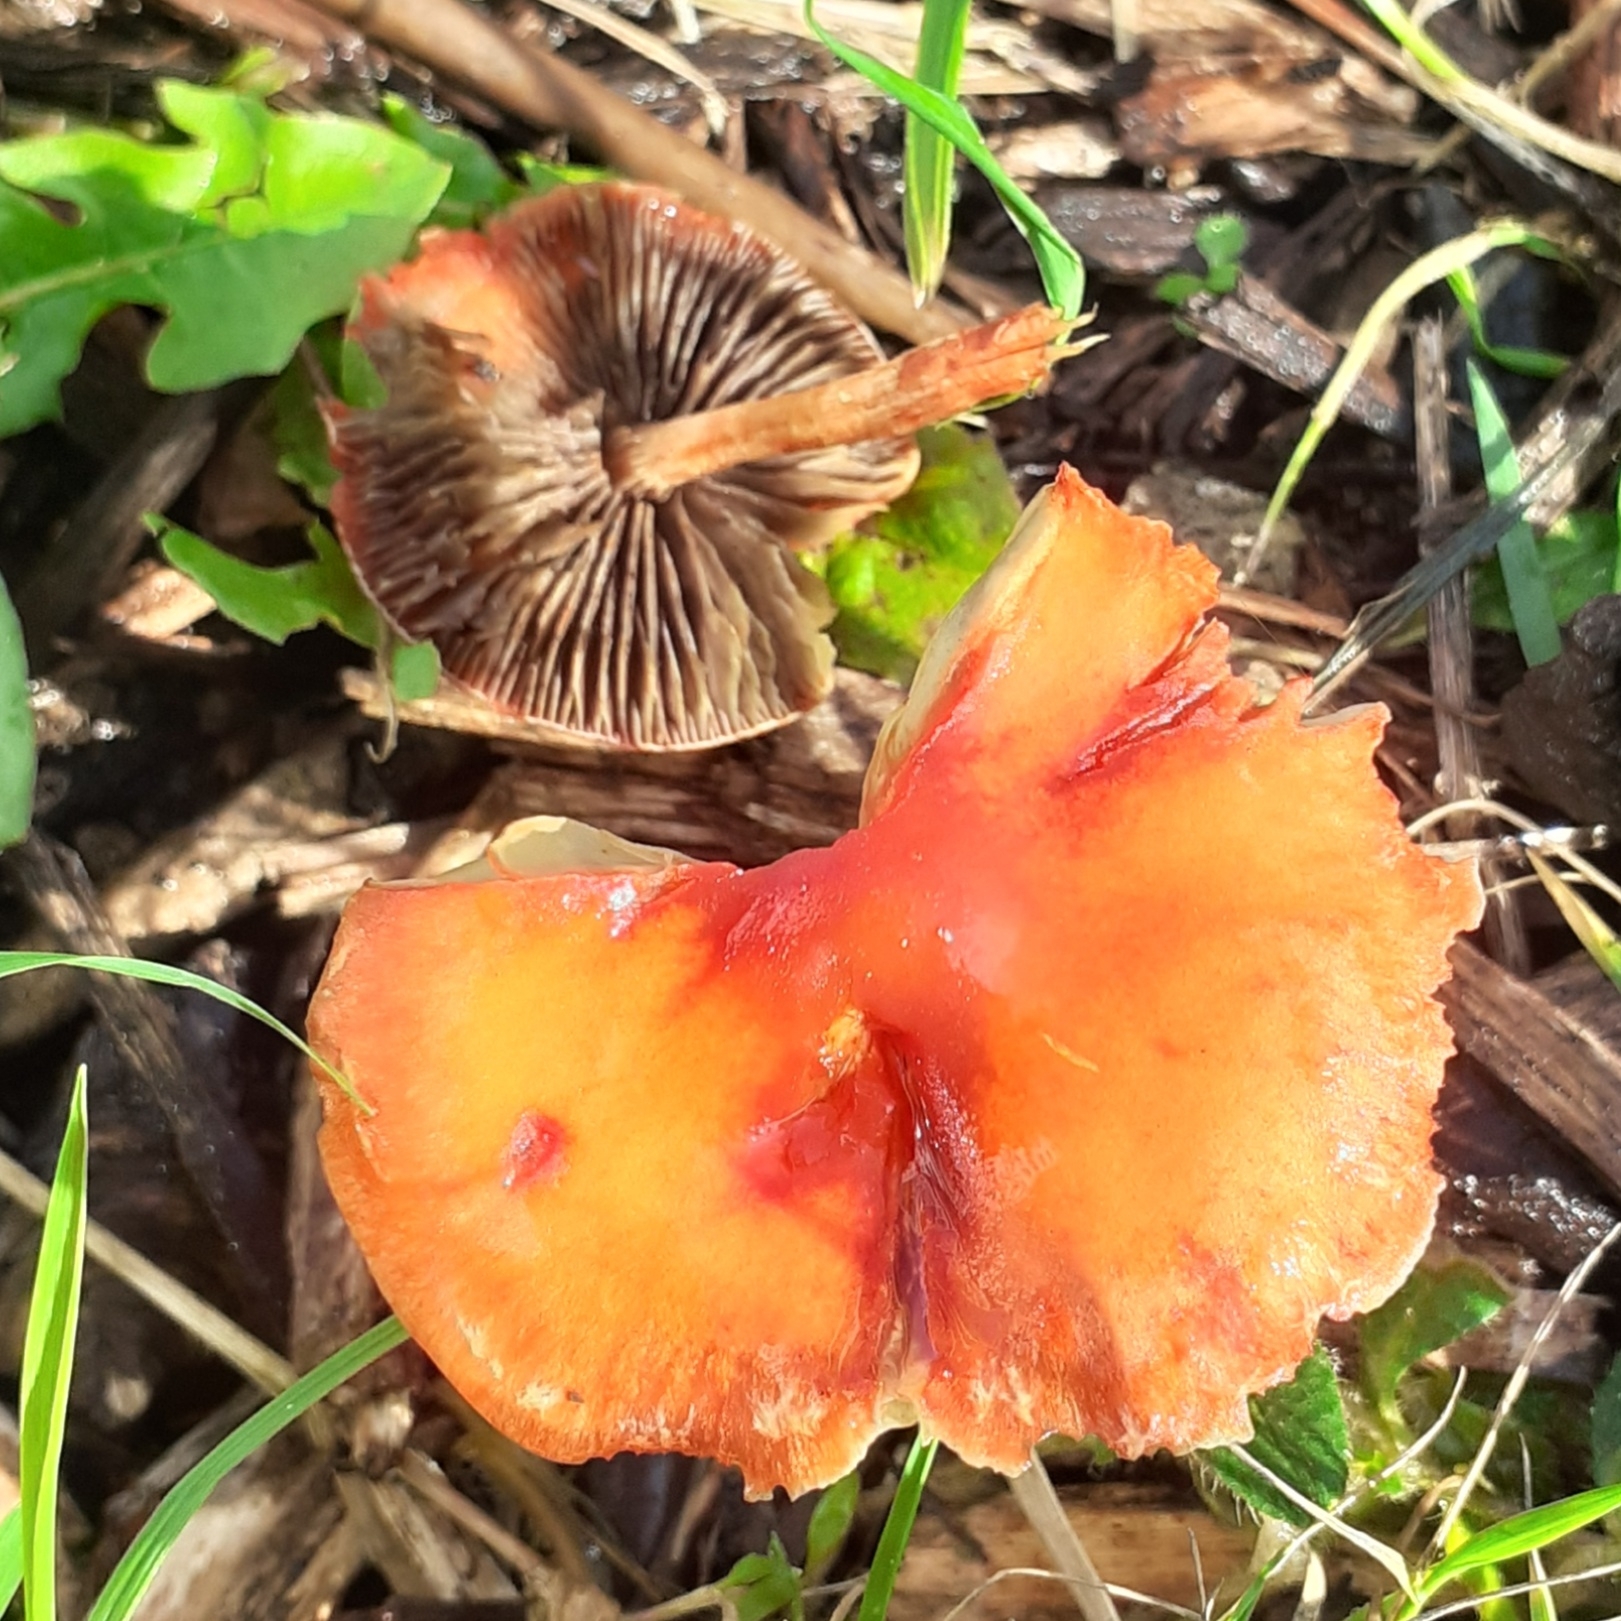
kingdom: Fungi
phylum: Basidiomycota
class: Agaricomycetes
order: Agaricales
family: Strophariaceae
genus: Leratiomyces
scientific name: Leratiomyces ceres
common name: Redlead roundhead
